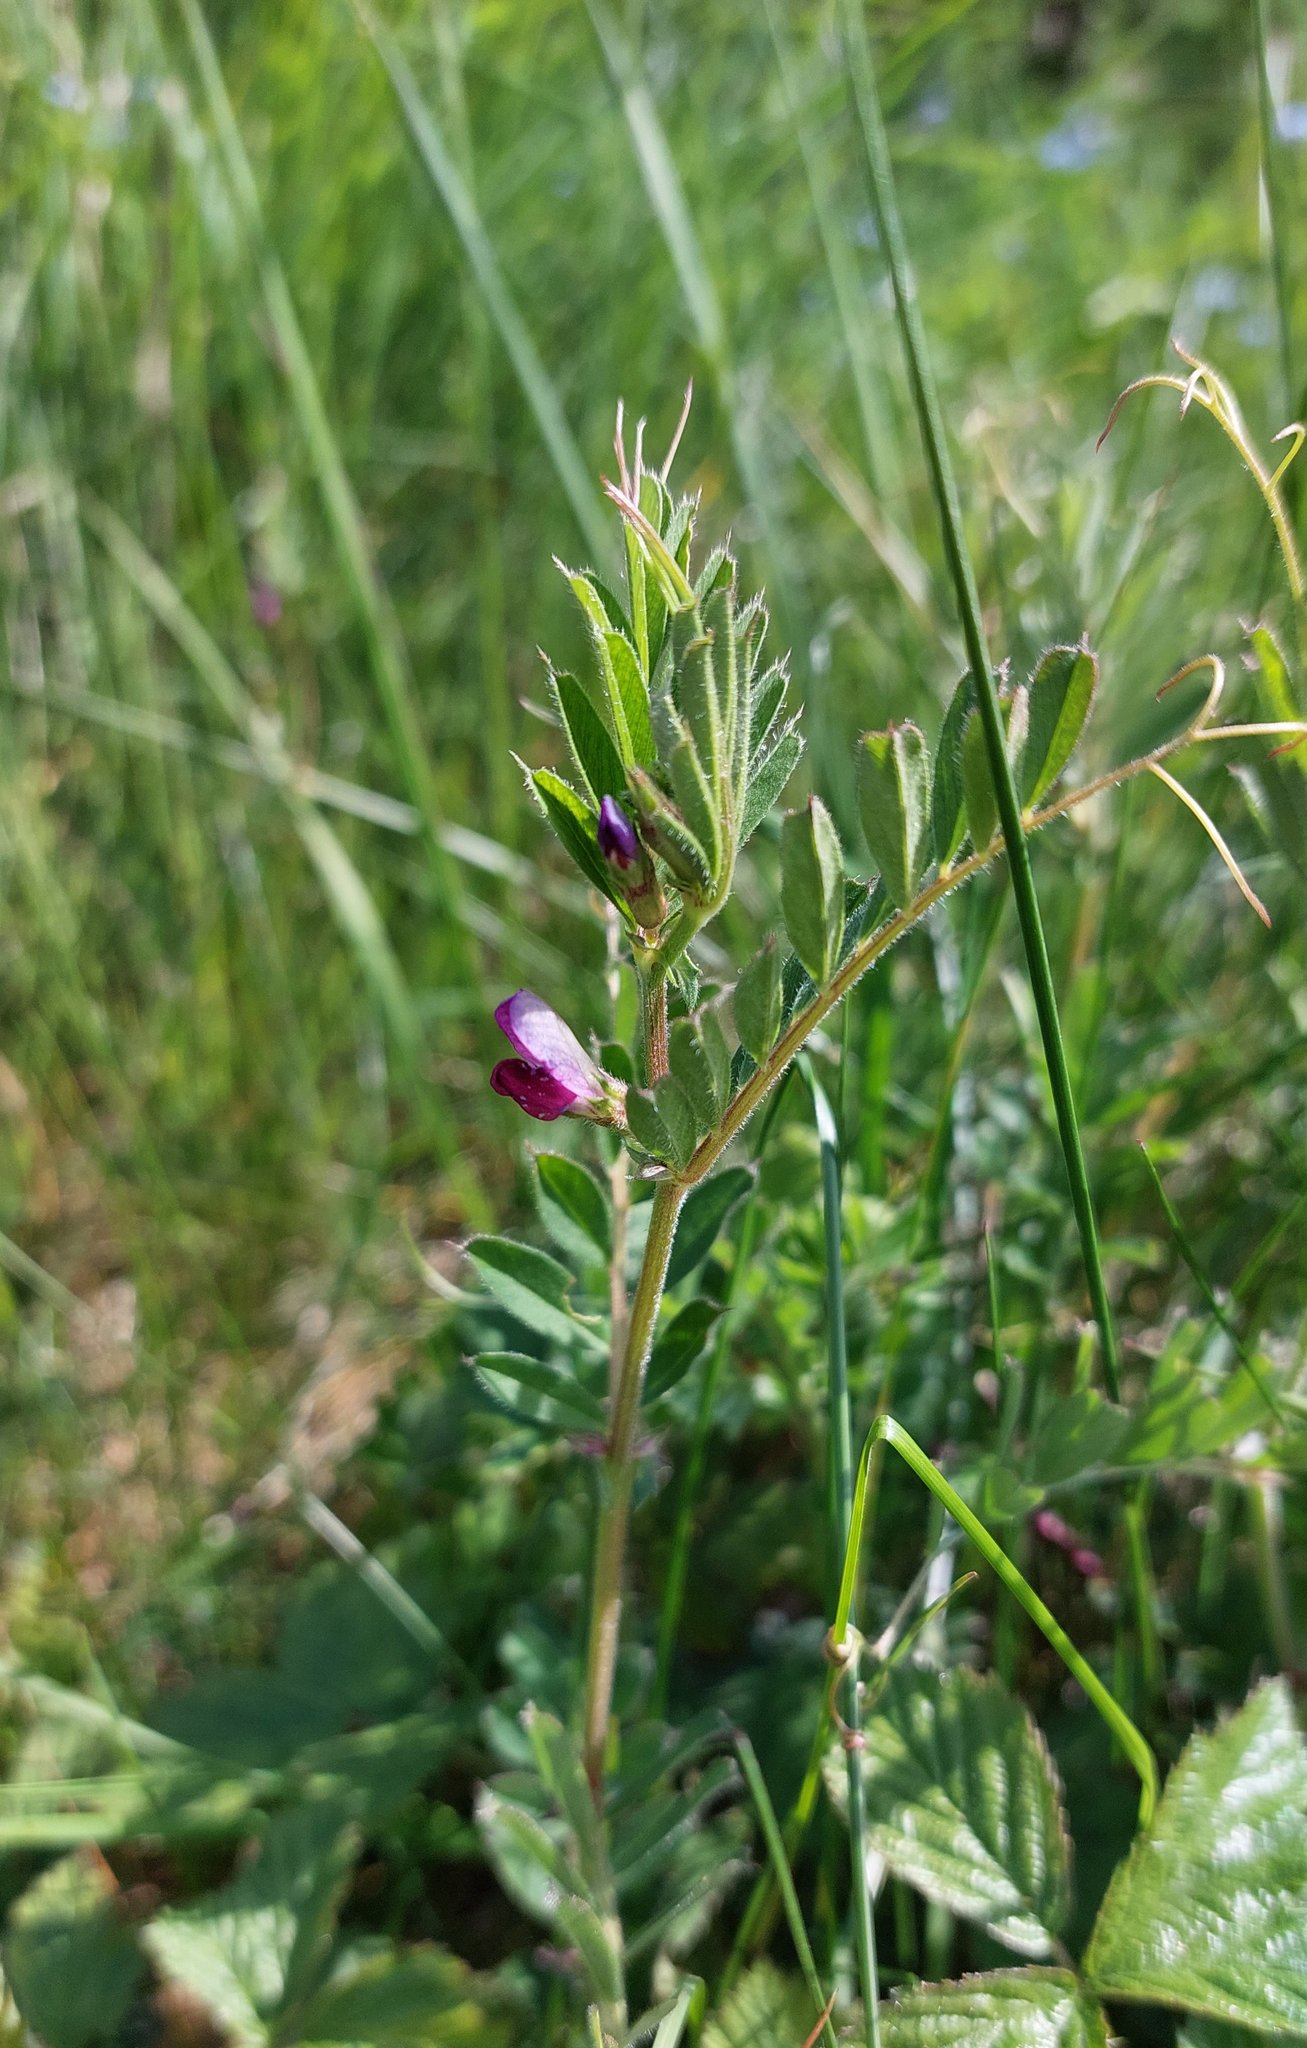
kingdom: Plantae
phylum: Tracheophyta
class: Magnoliopsida
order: Fabales
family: Fabaceae
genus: Vicia
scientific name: Vicia sativa
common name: Garden vetch
